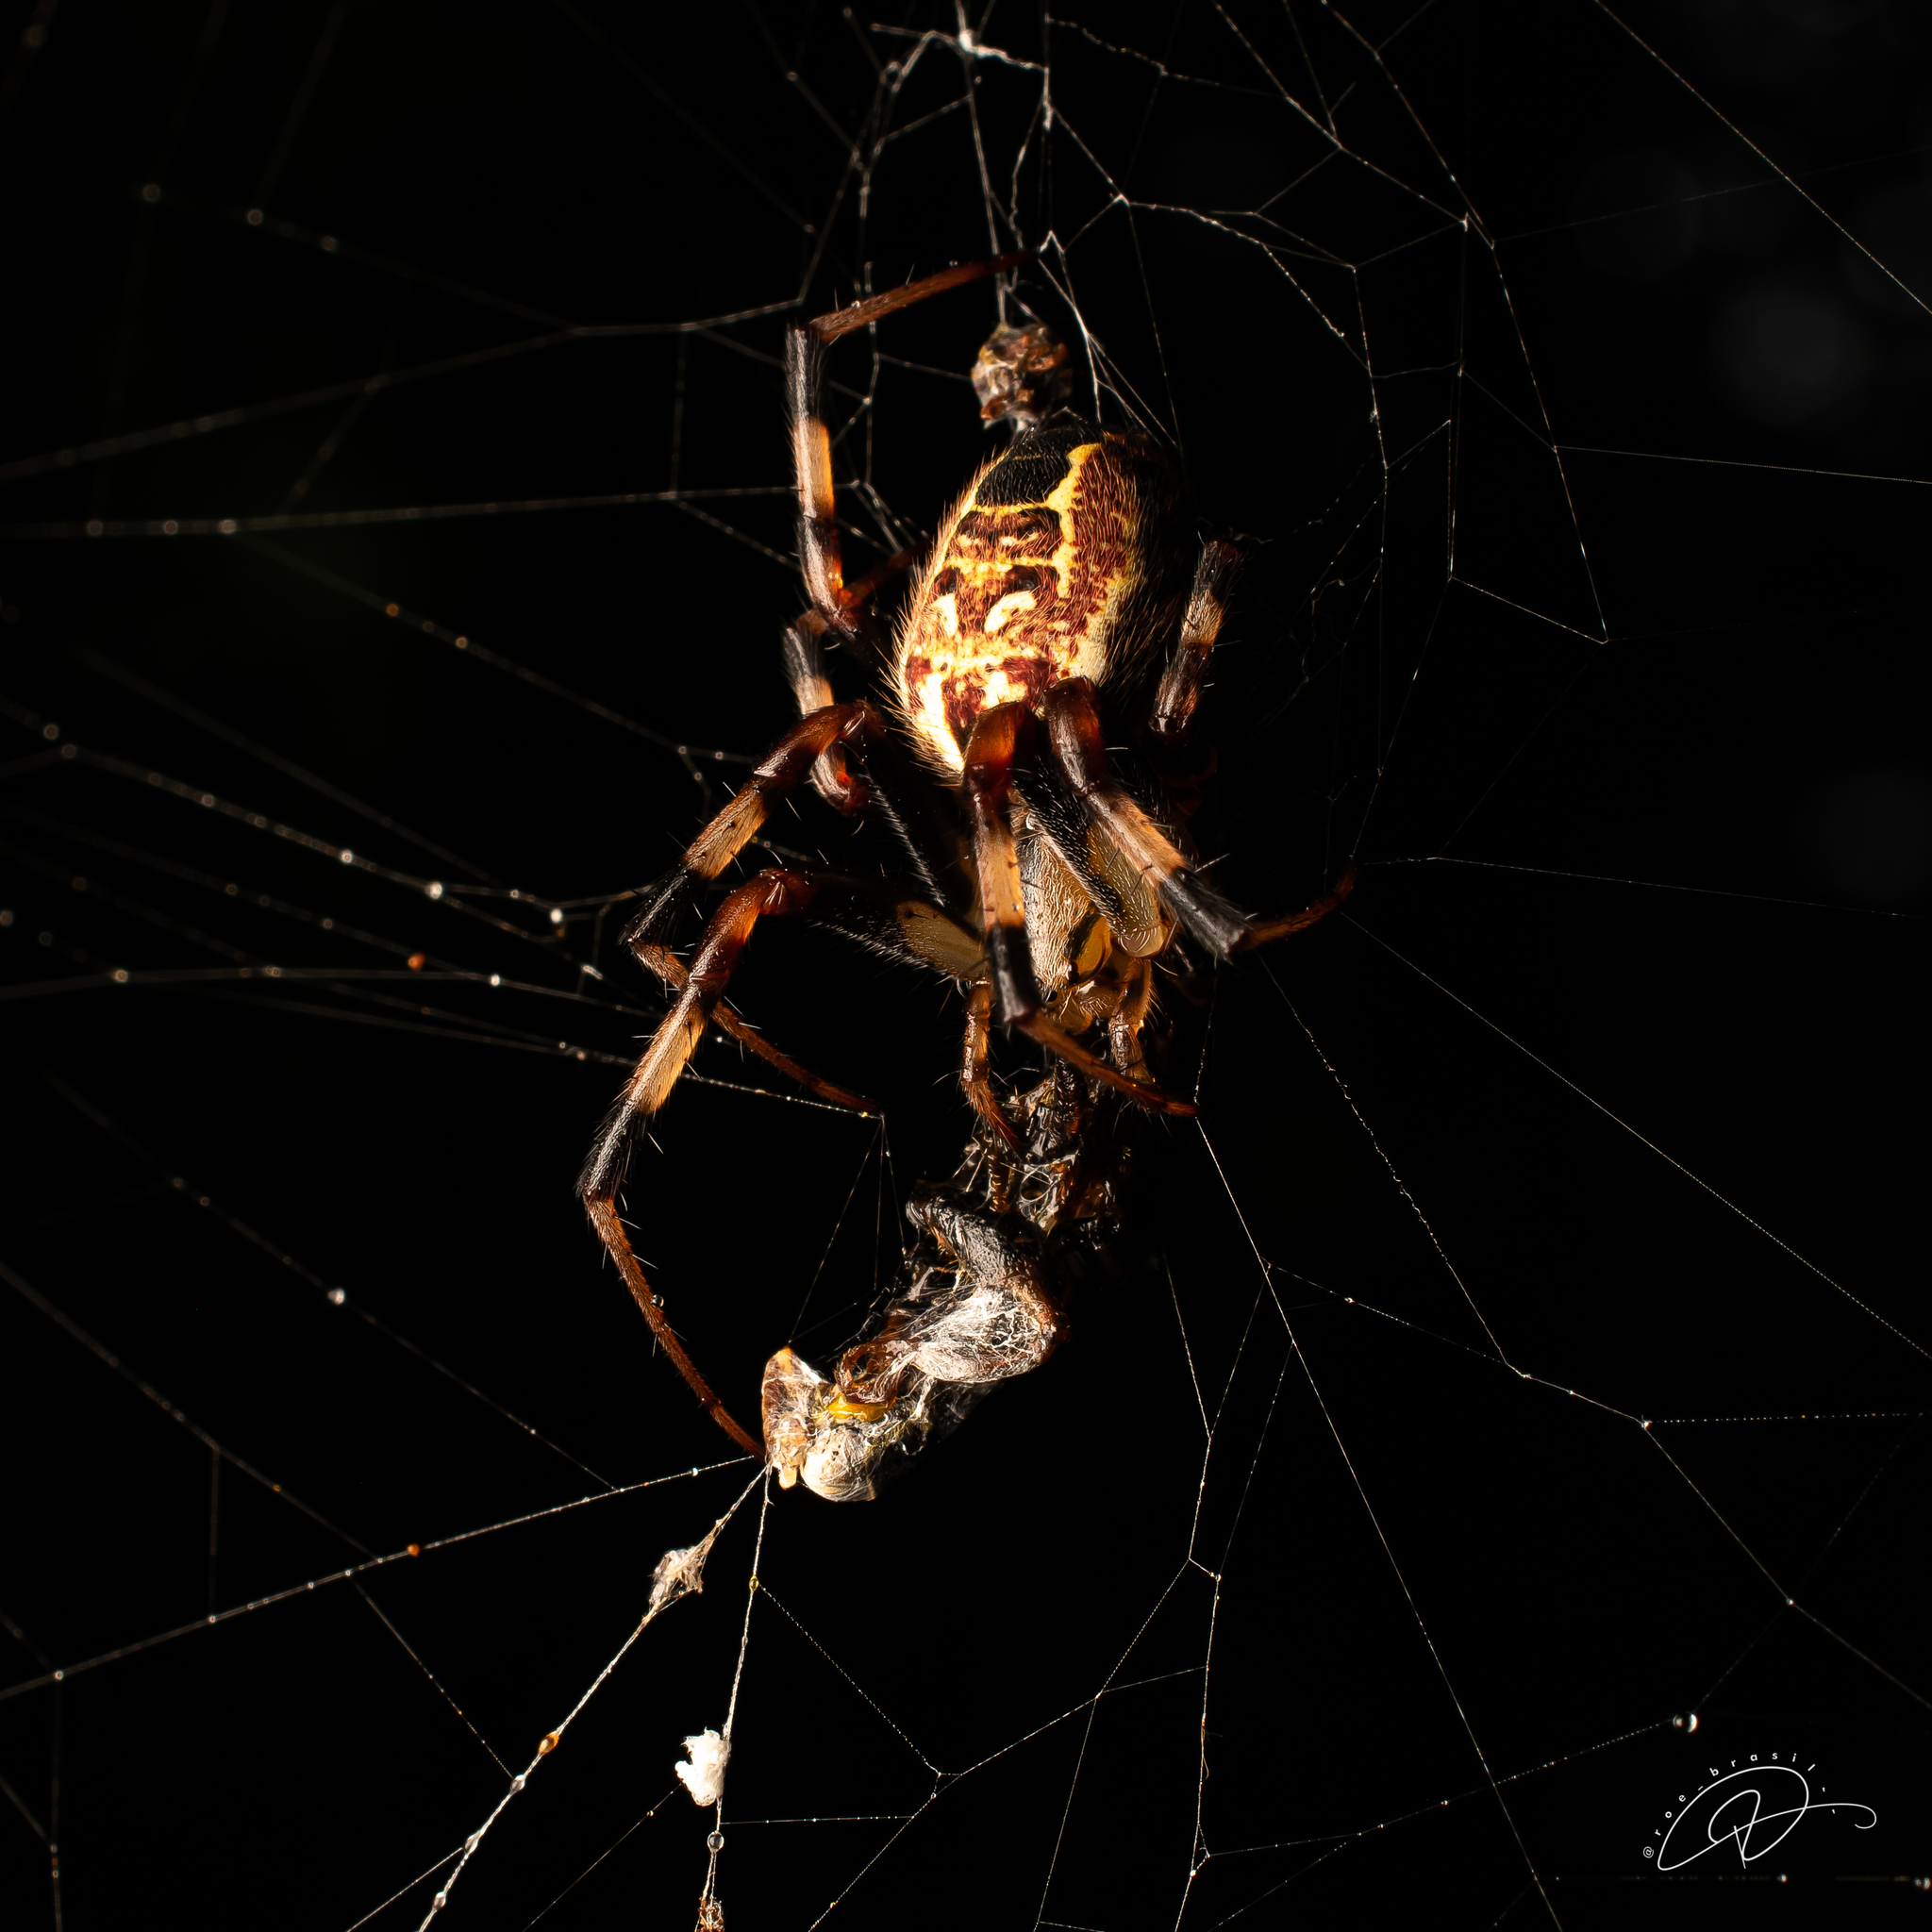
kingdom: Animalia
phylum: Arthropoda
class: Arachnida
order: Araneae
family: Araneidae
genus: Araneus
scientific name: Araneus venatrix
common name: Orb weavers
